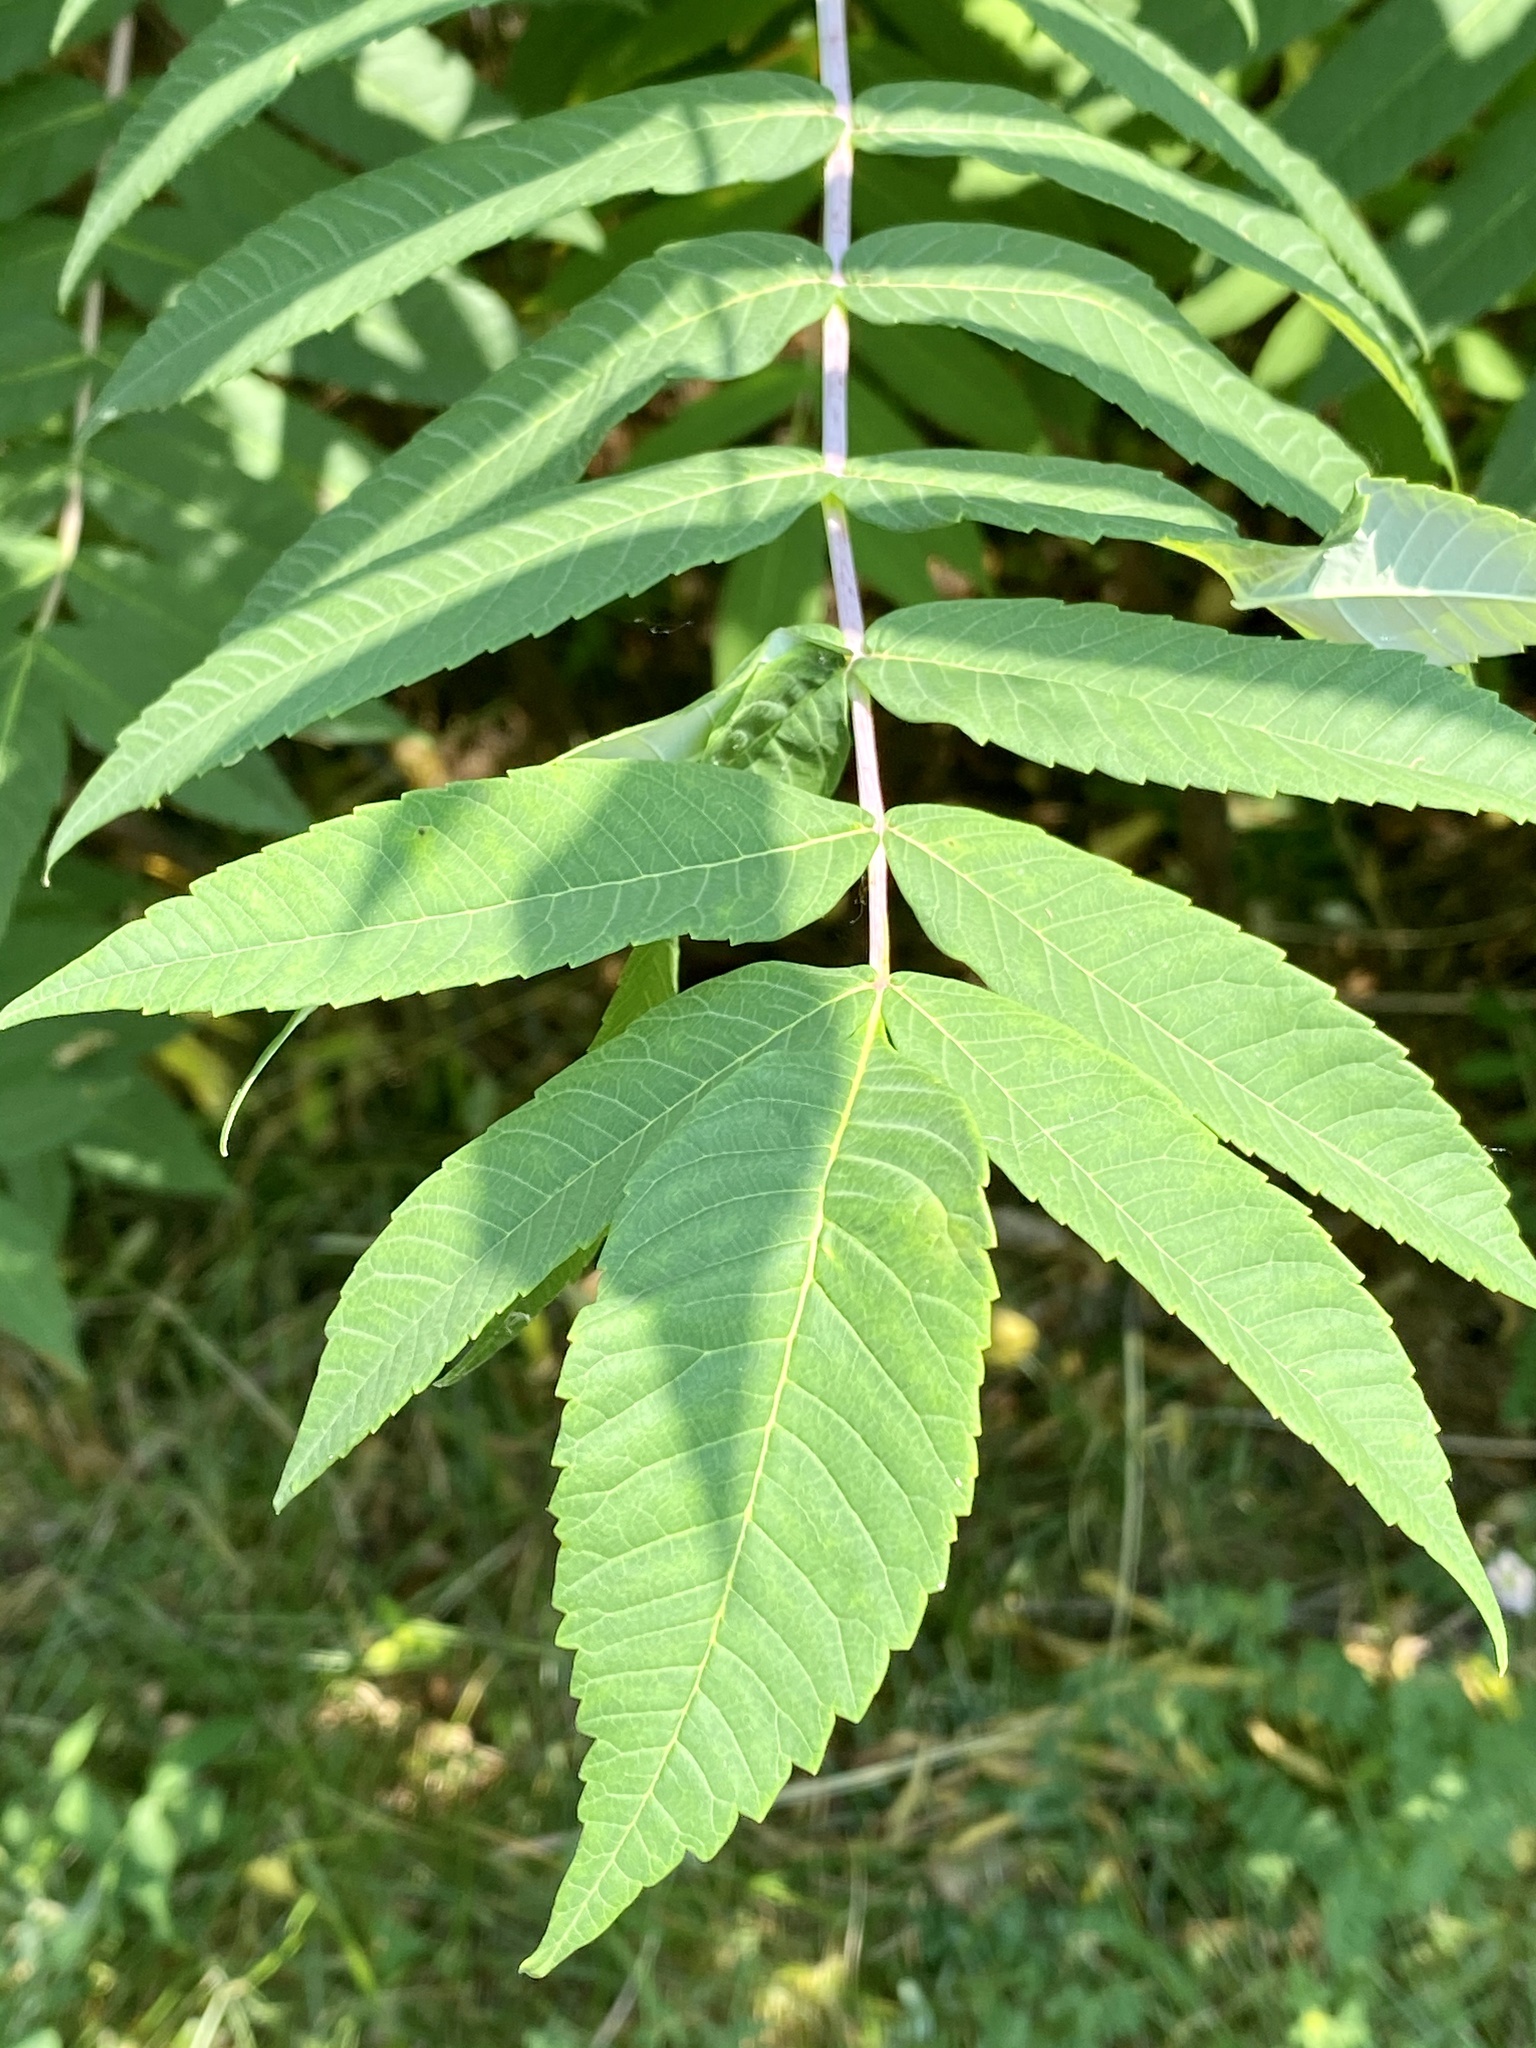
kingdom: Plantae
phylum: Tracheophyta
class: Magnoliopsida
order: Sapindales
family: Anacardiaceae
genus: Rhus
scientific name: Rhus glabra
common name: Scarlet sumac
